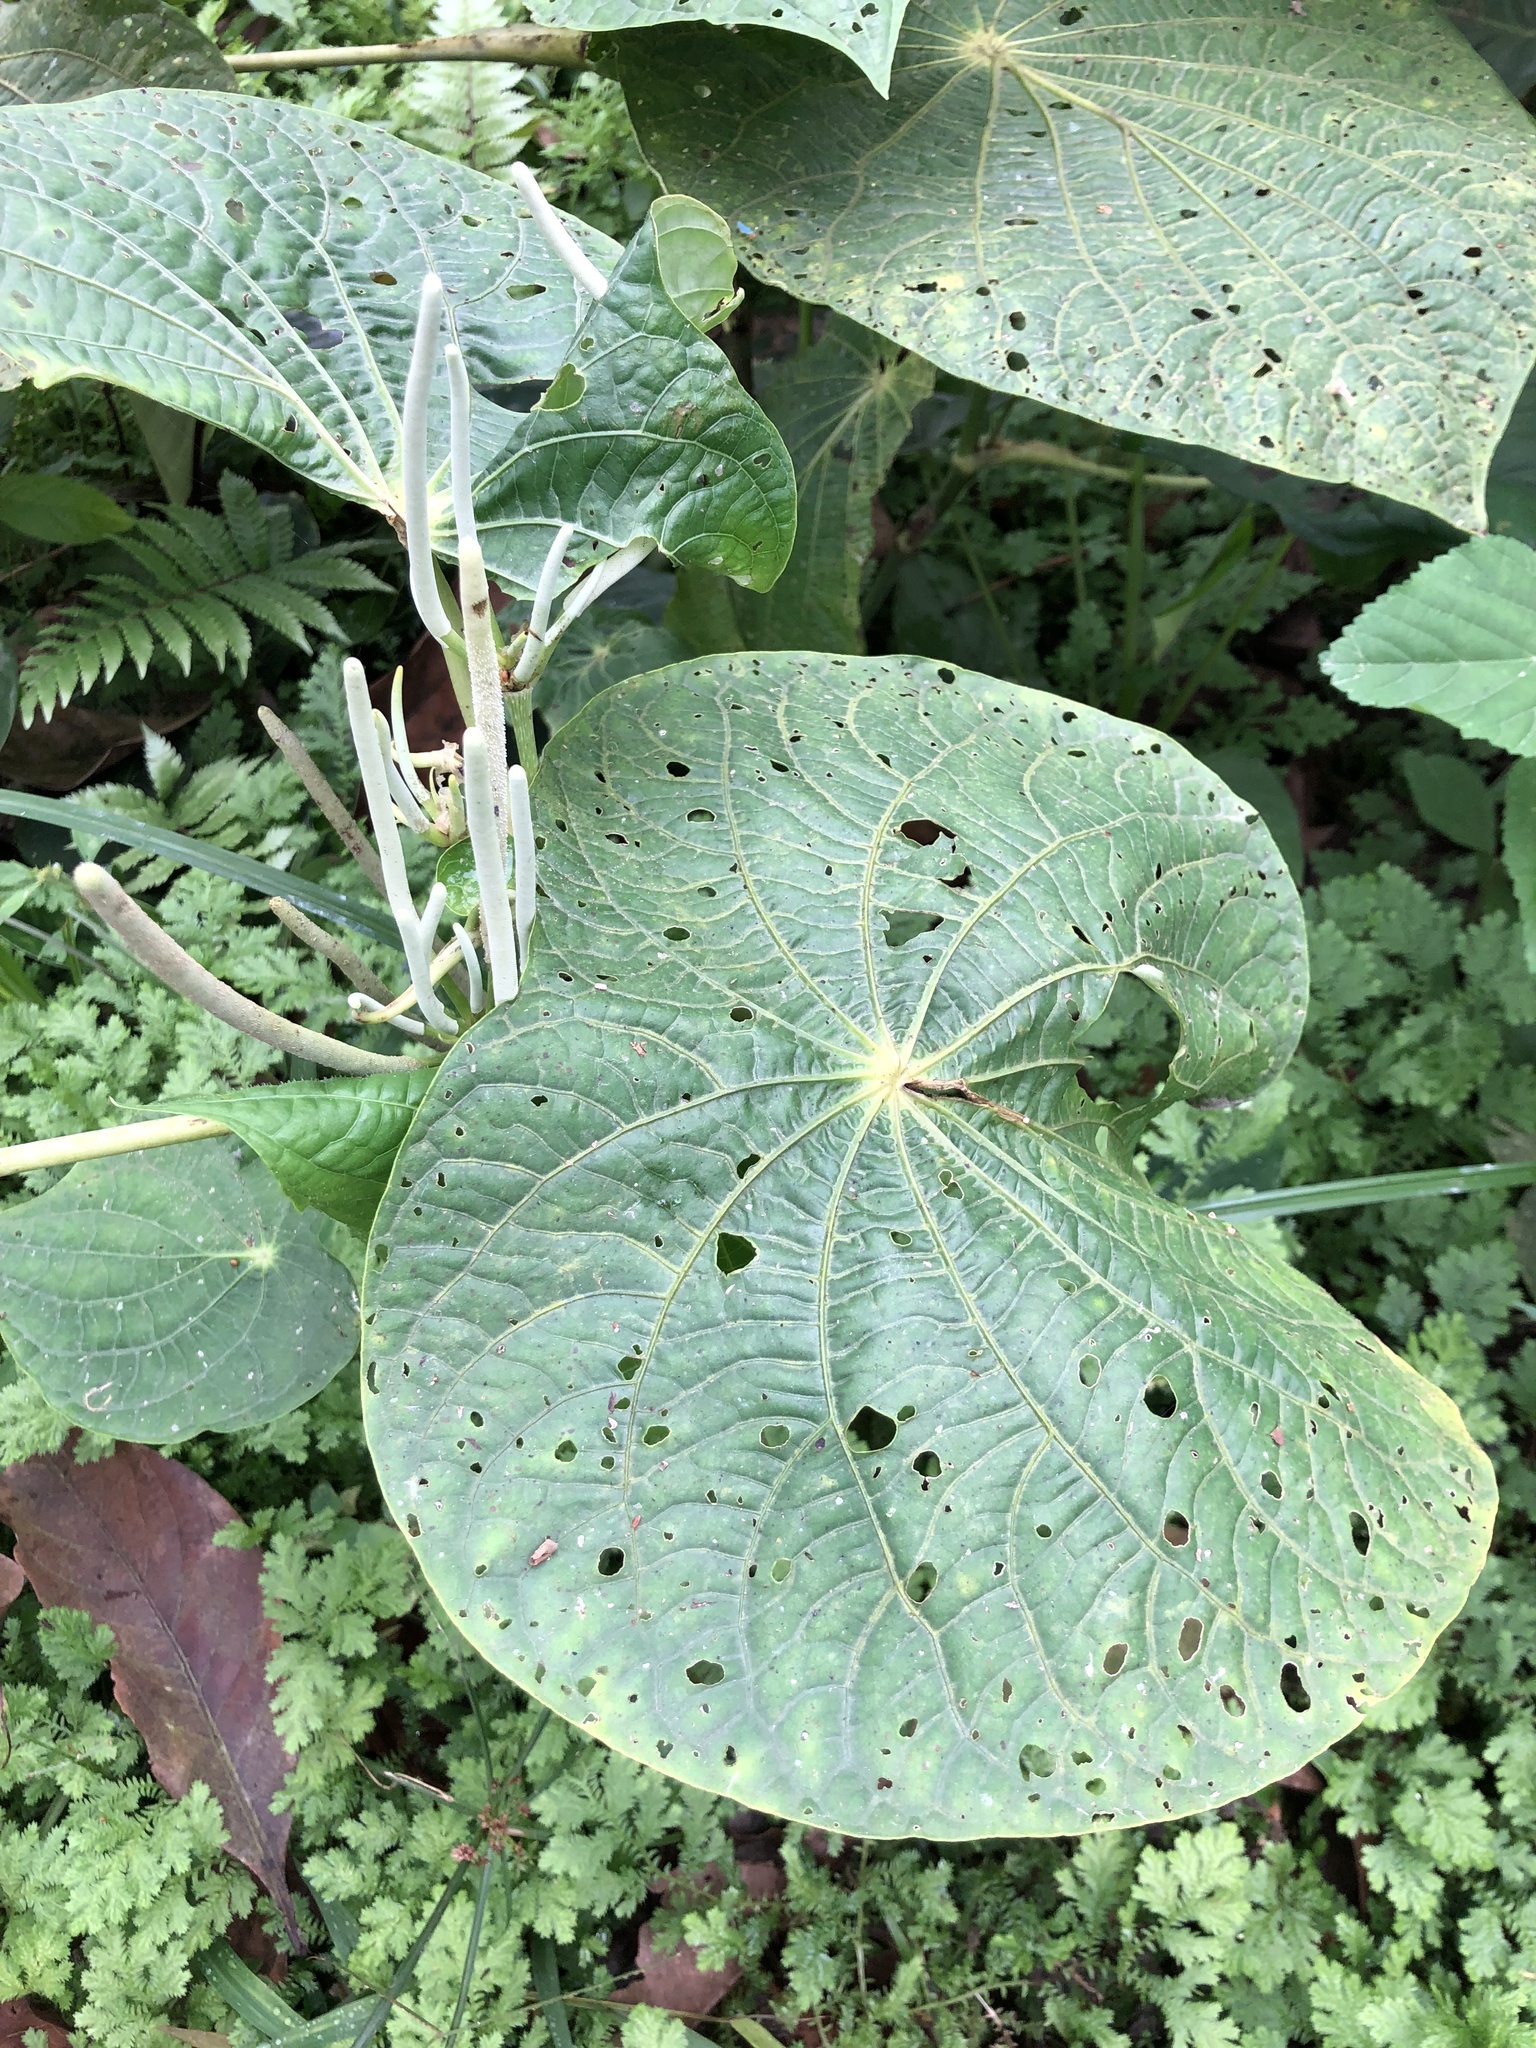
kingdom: Plantae
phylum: Tracheophyta
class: Magnoliopsida
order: Piperales
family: Piperaceae
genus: Piper
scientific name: Piper peltatum
